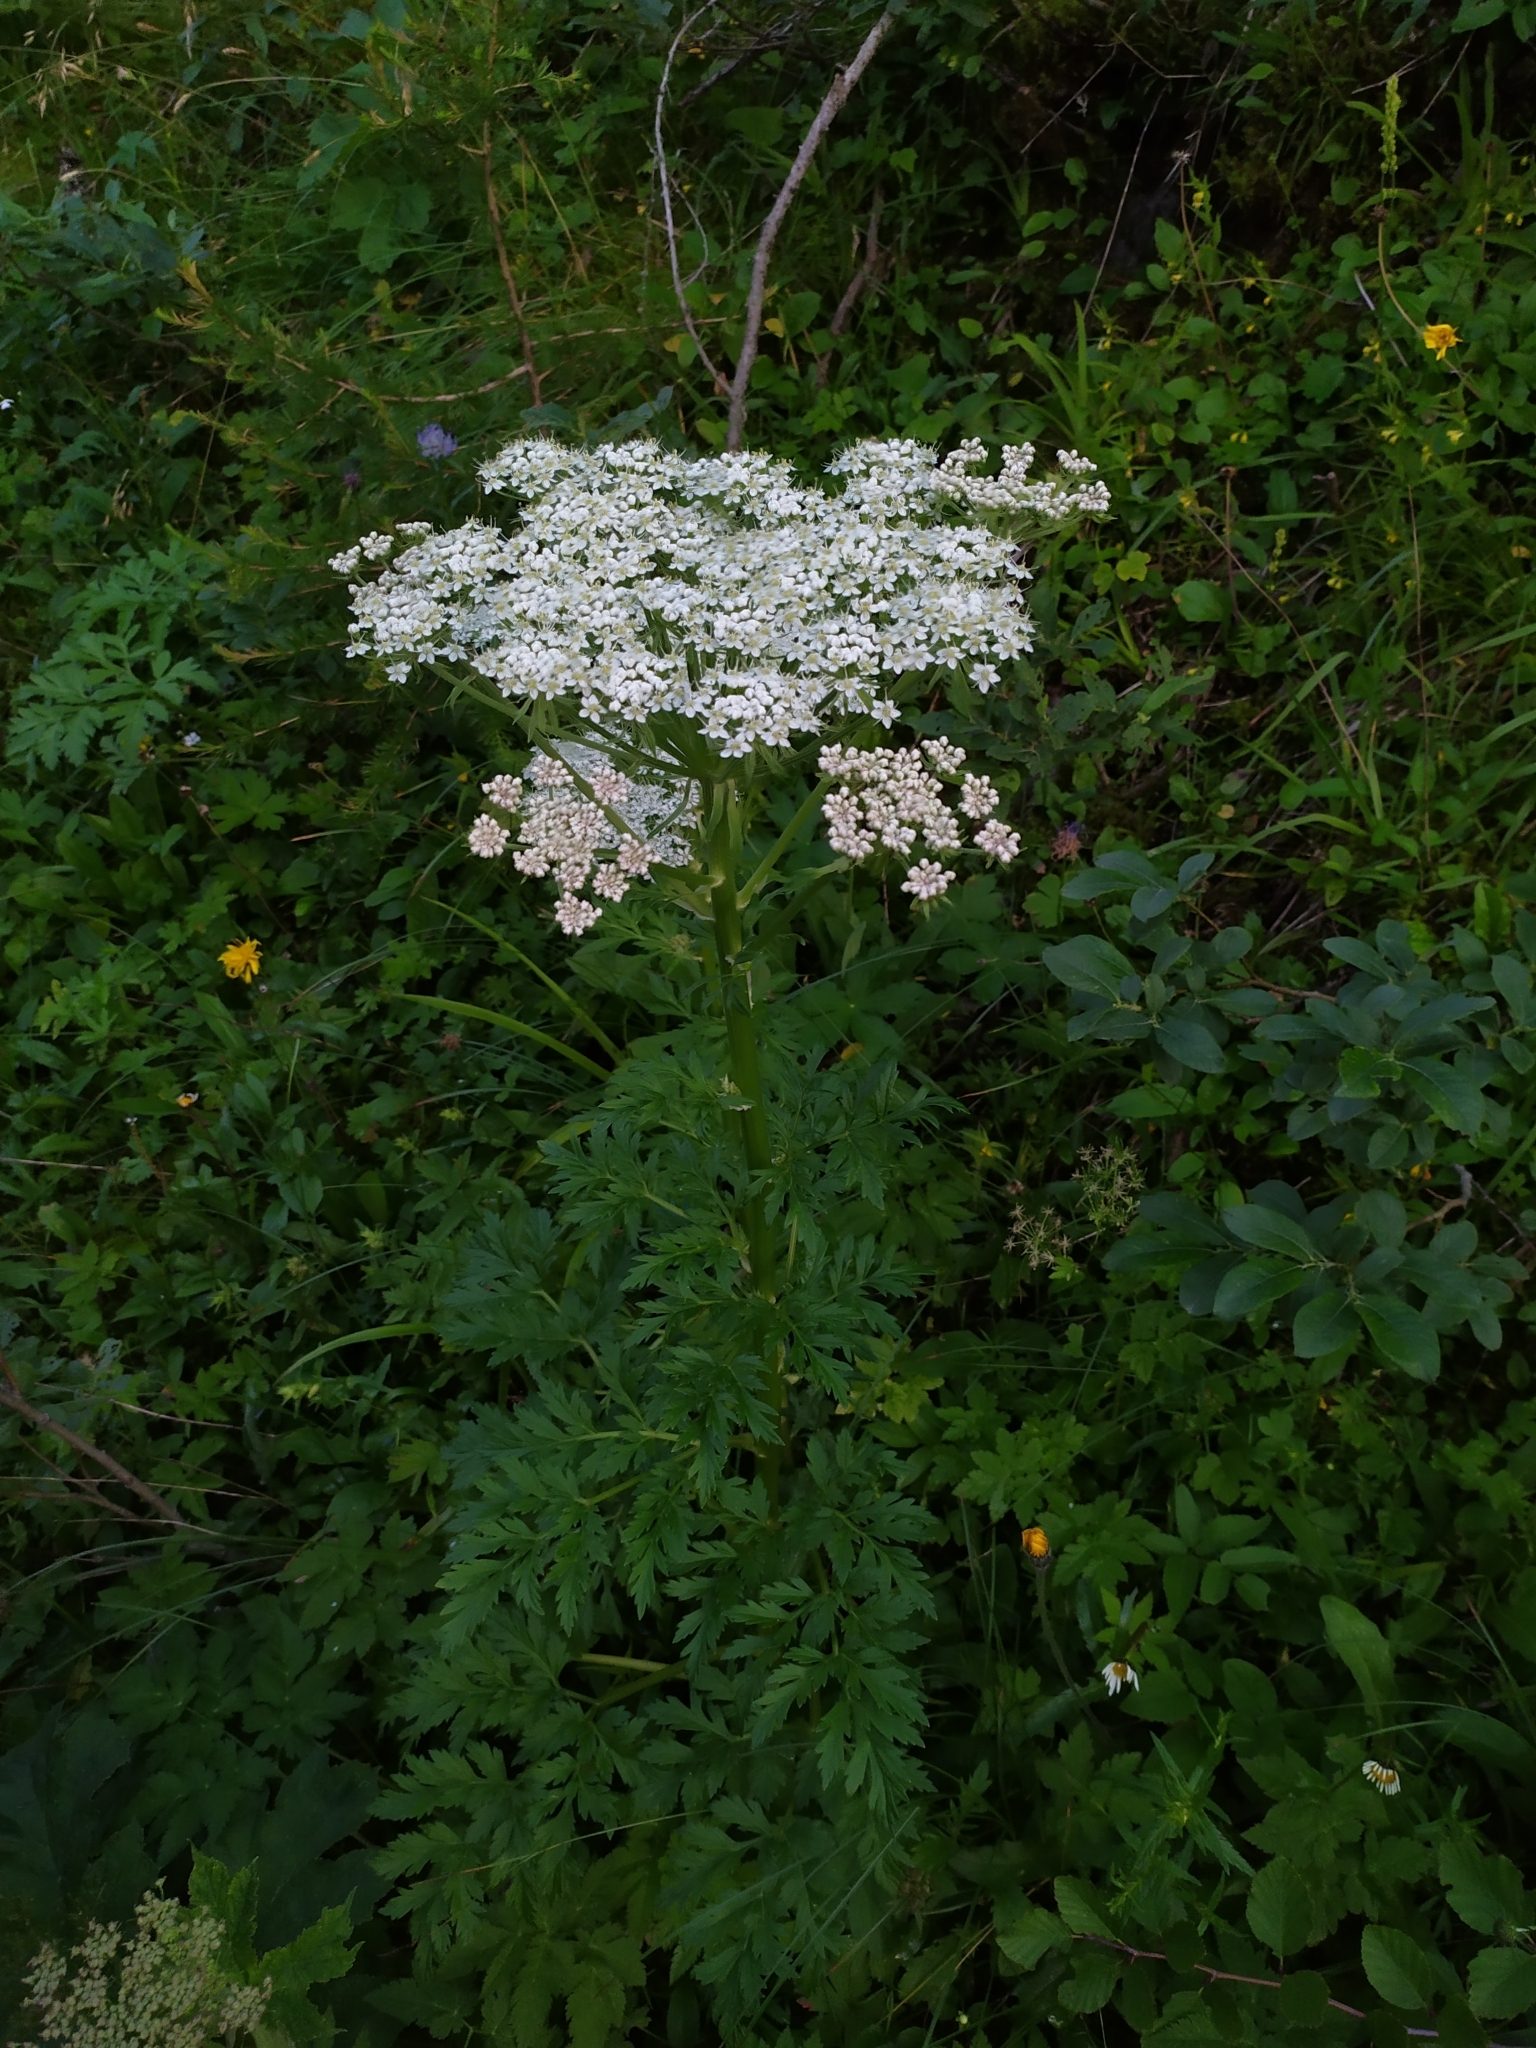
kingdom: Plantae
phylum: Tracheophyta
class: Magnoliopsida
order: Apiales
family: Apiaceae
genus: Pleurospermum
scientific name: Pleurospermum austriacum
